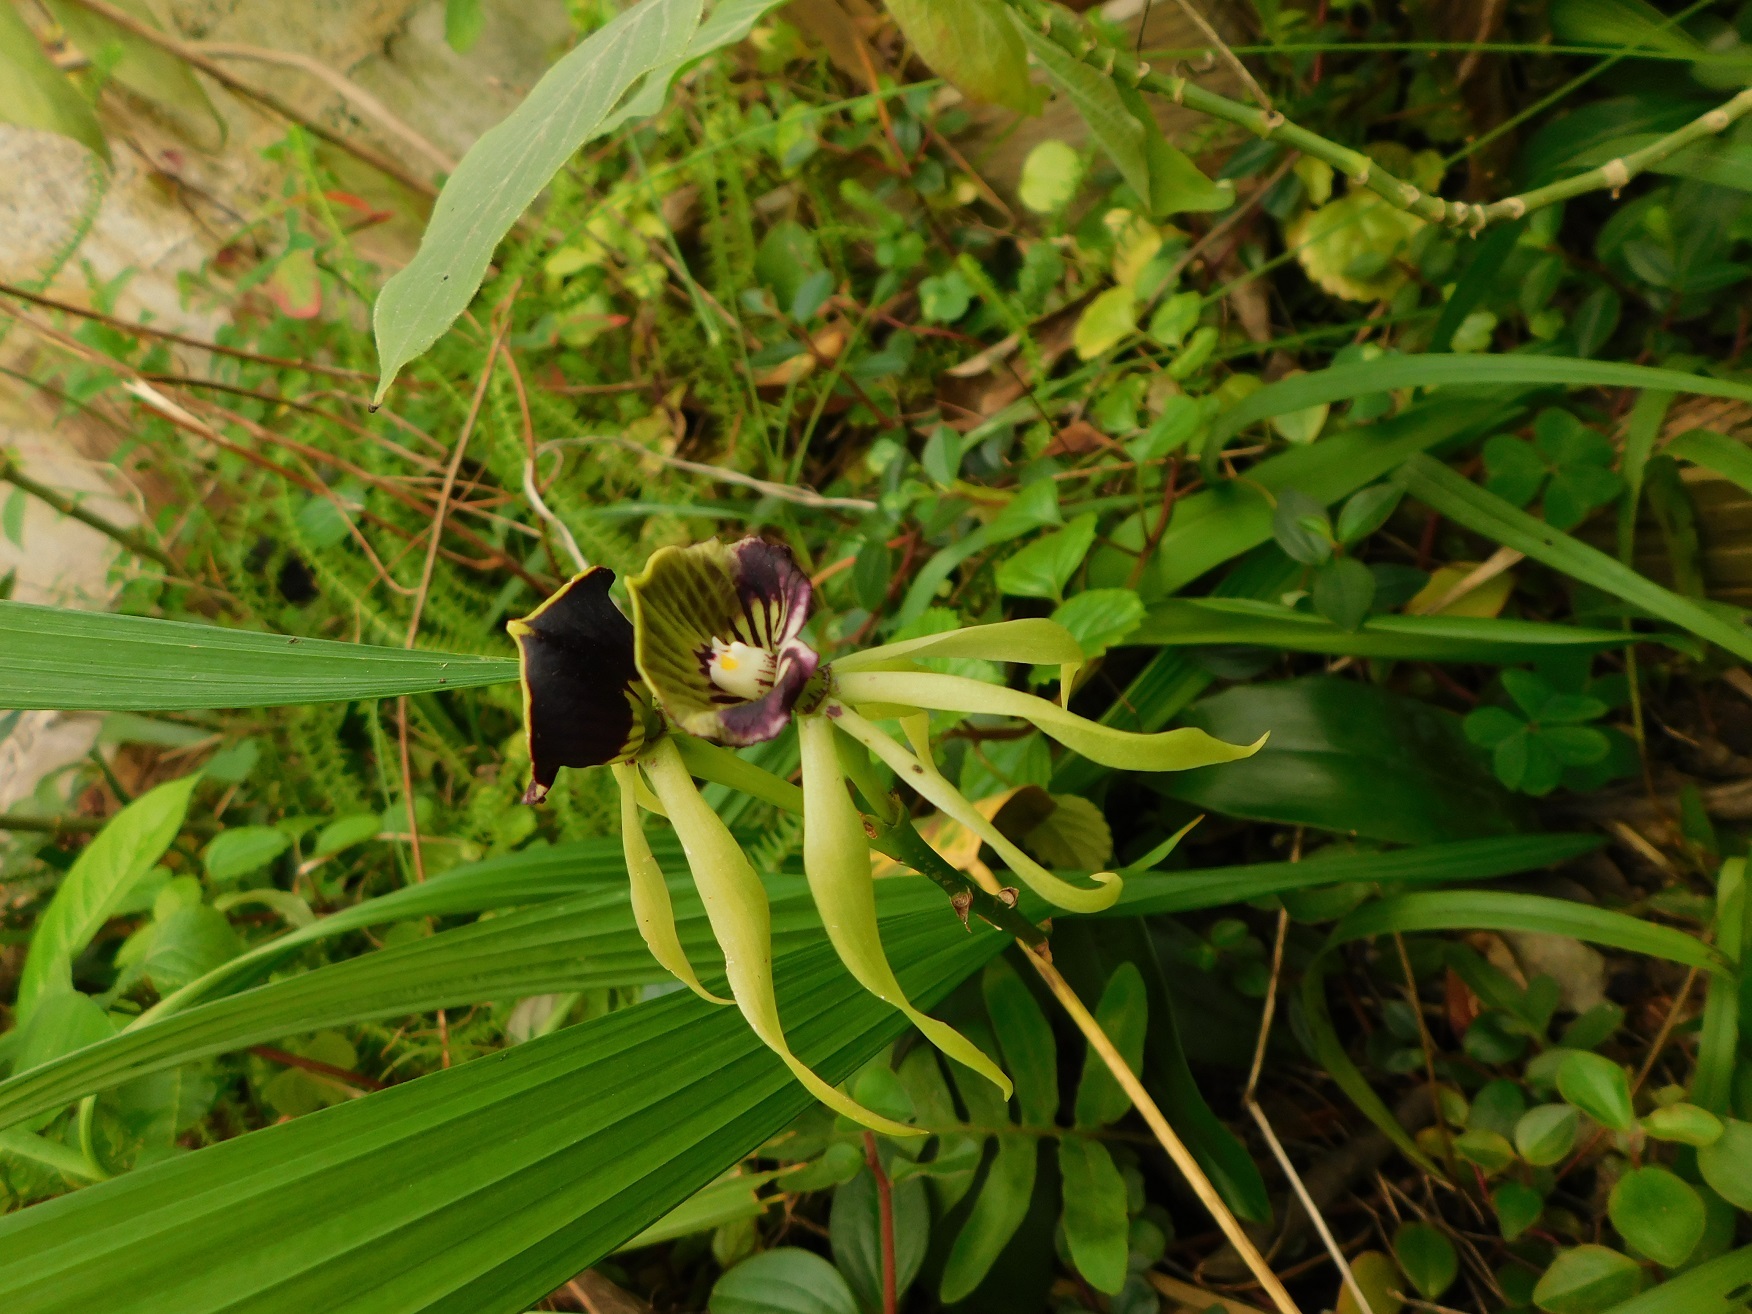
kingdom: Plantae
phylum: Tracheophyta
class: Liliopsida
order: Asparagales
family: Orchidaceae
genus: Prosthechea
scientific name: Prosthechea cochleata
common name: Clamshell orchid
